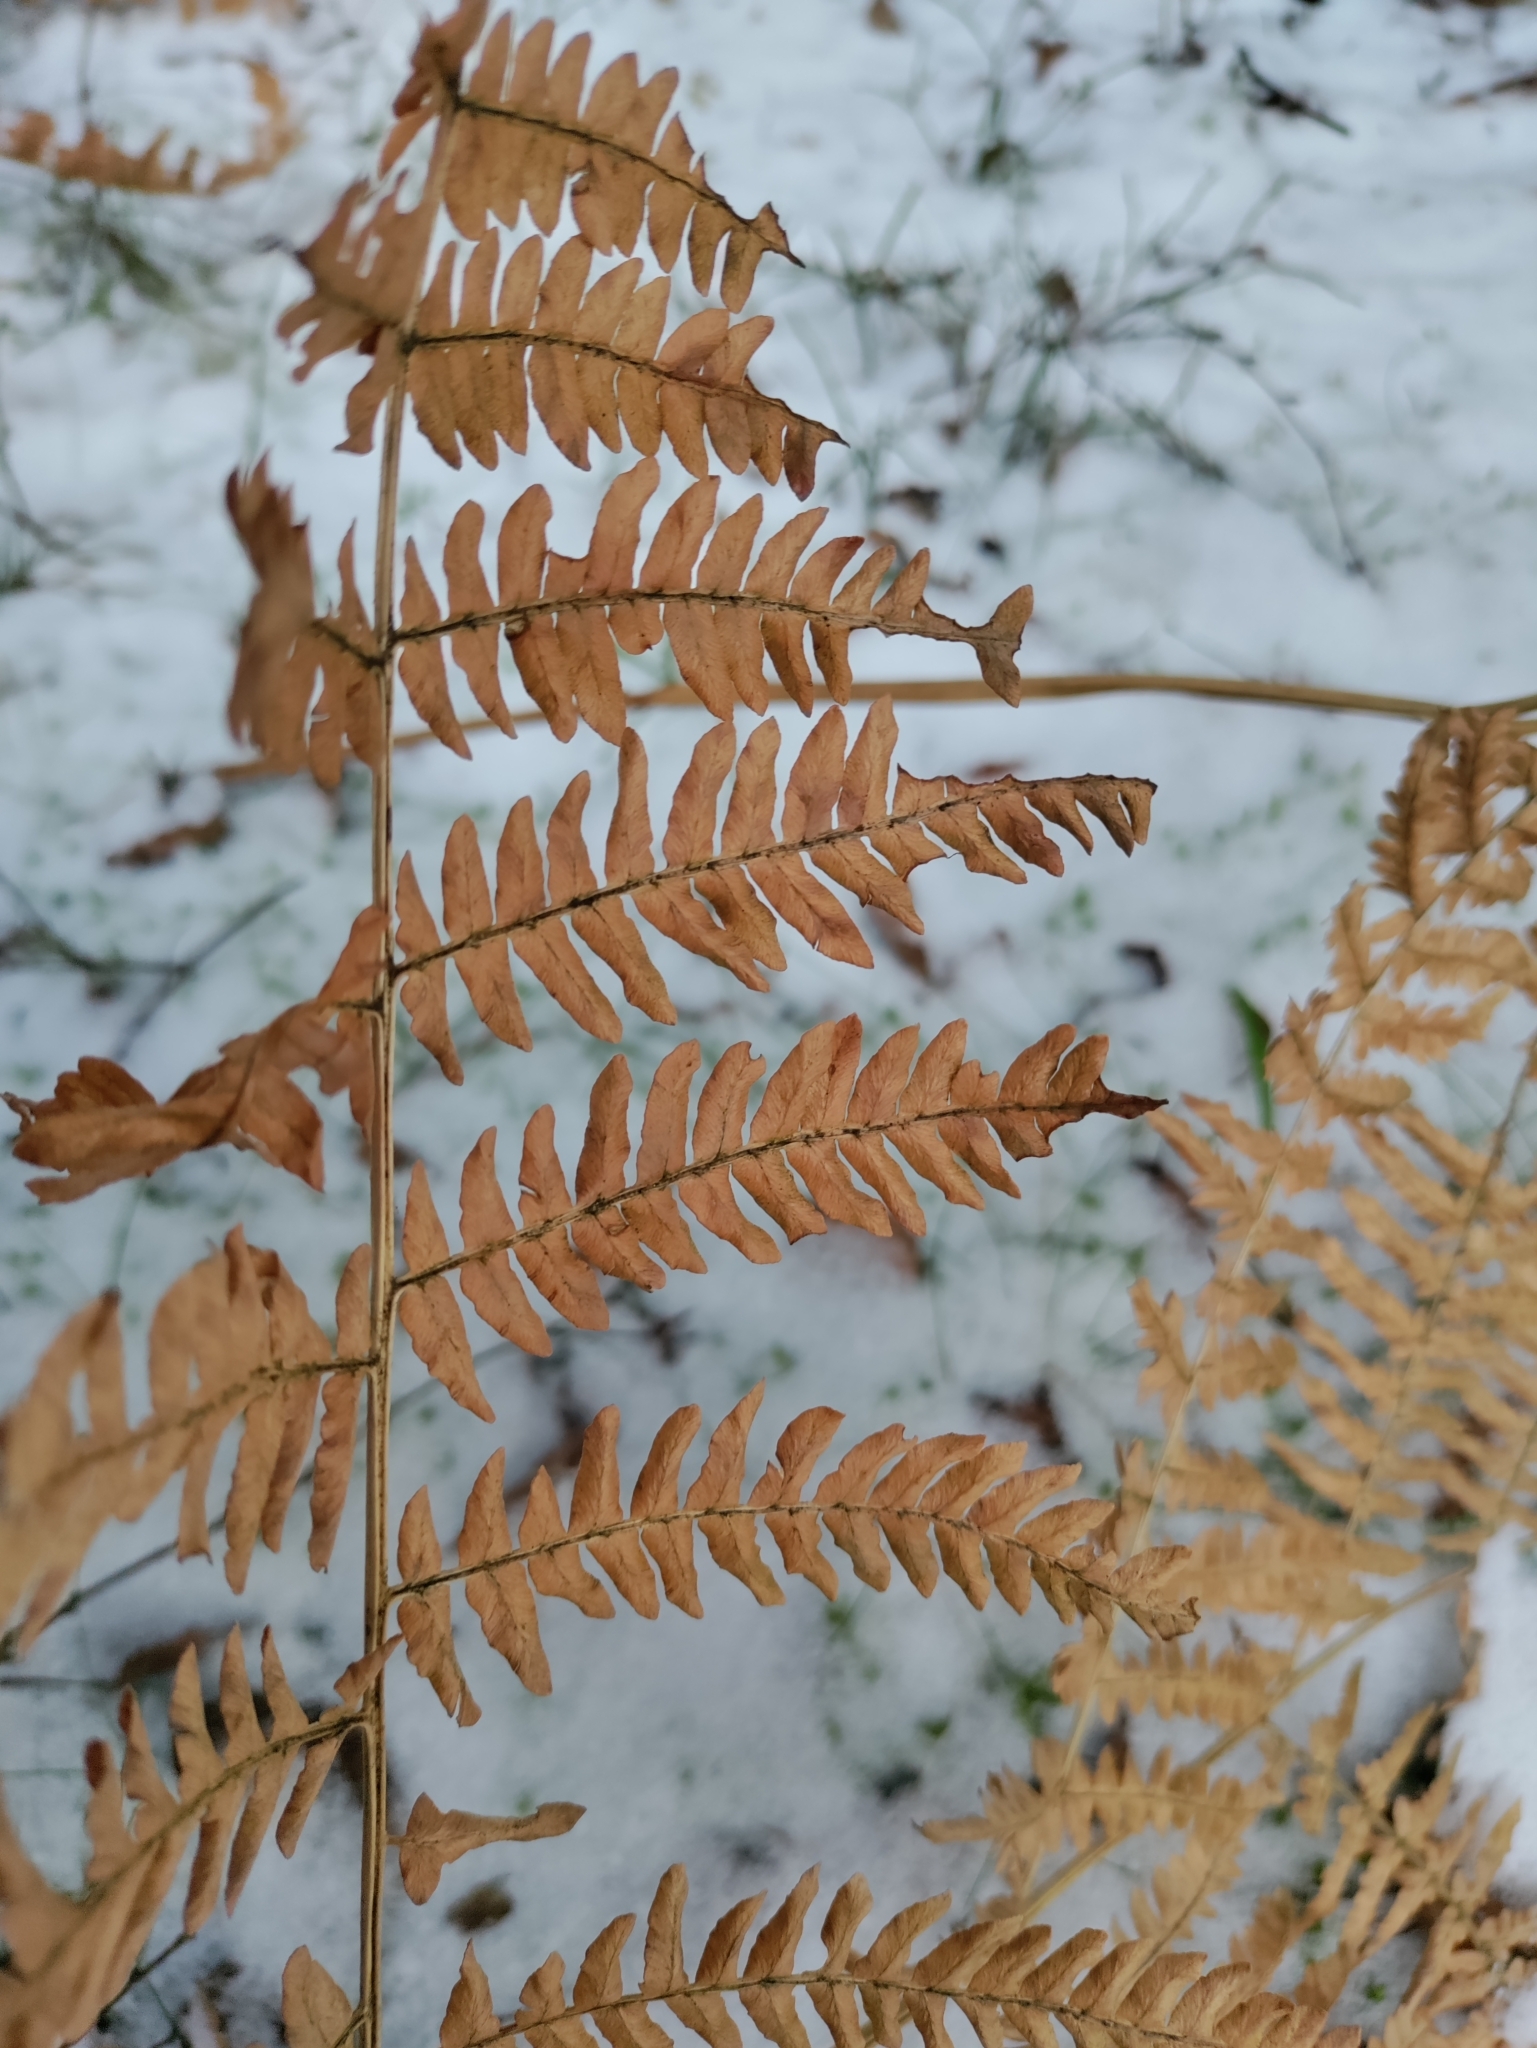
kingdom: Plantae
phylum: Tracheophyta
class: Polypodiopsida
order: Polypodiales
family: Dennstaedtiaceae
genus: Pteridium
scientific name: Pteridium aquilinum
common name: Bracken
